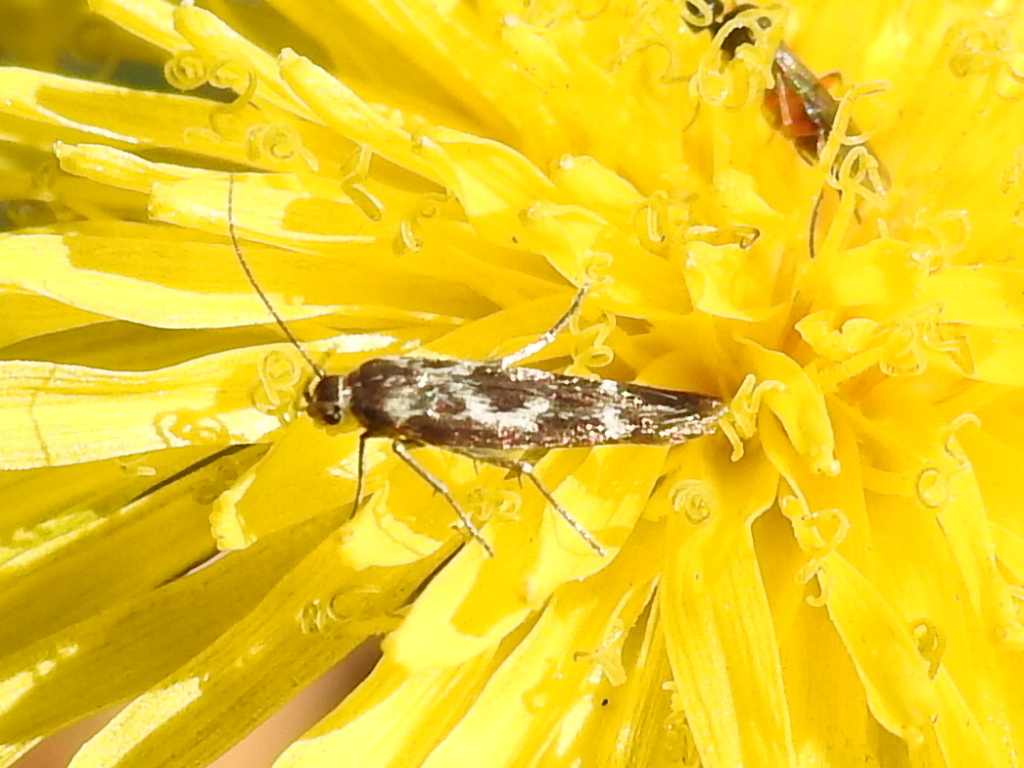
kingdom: Animalia
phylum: Arthropoda
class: Insecta
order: Lepidoptera
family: Scythrididae
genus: Scythris
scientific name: Scythris trivinctella
